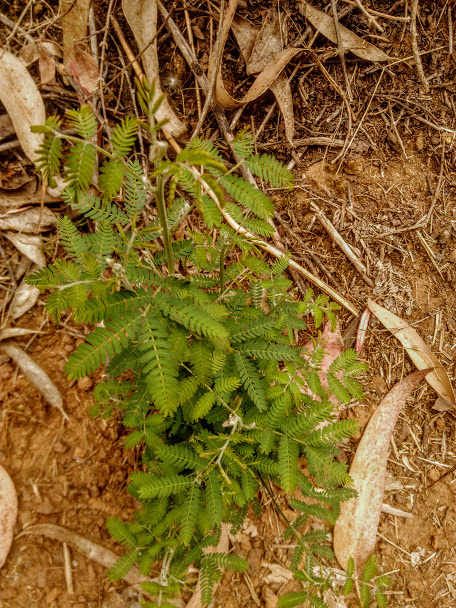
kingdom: Plantae
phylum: Tracheophyta
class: Magnoliopsida
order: Fabales
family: Fabaceae
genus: Acacia
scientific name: Acacia melanoxylon
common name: Blackwood
